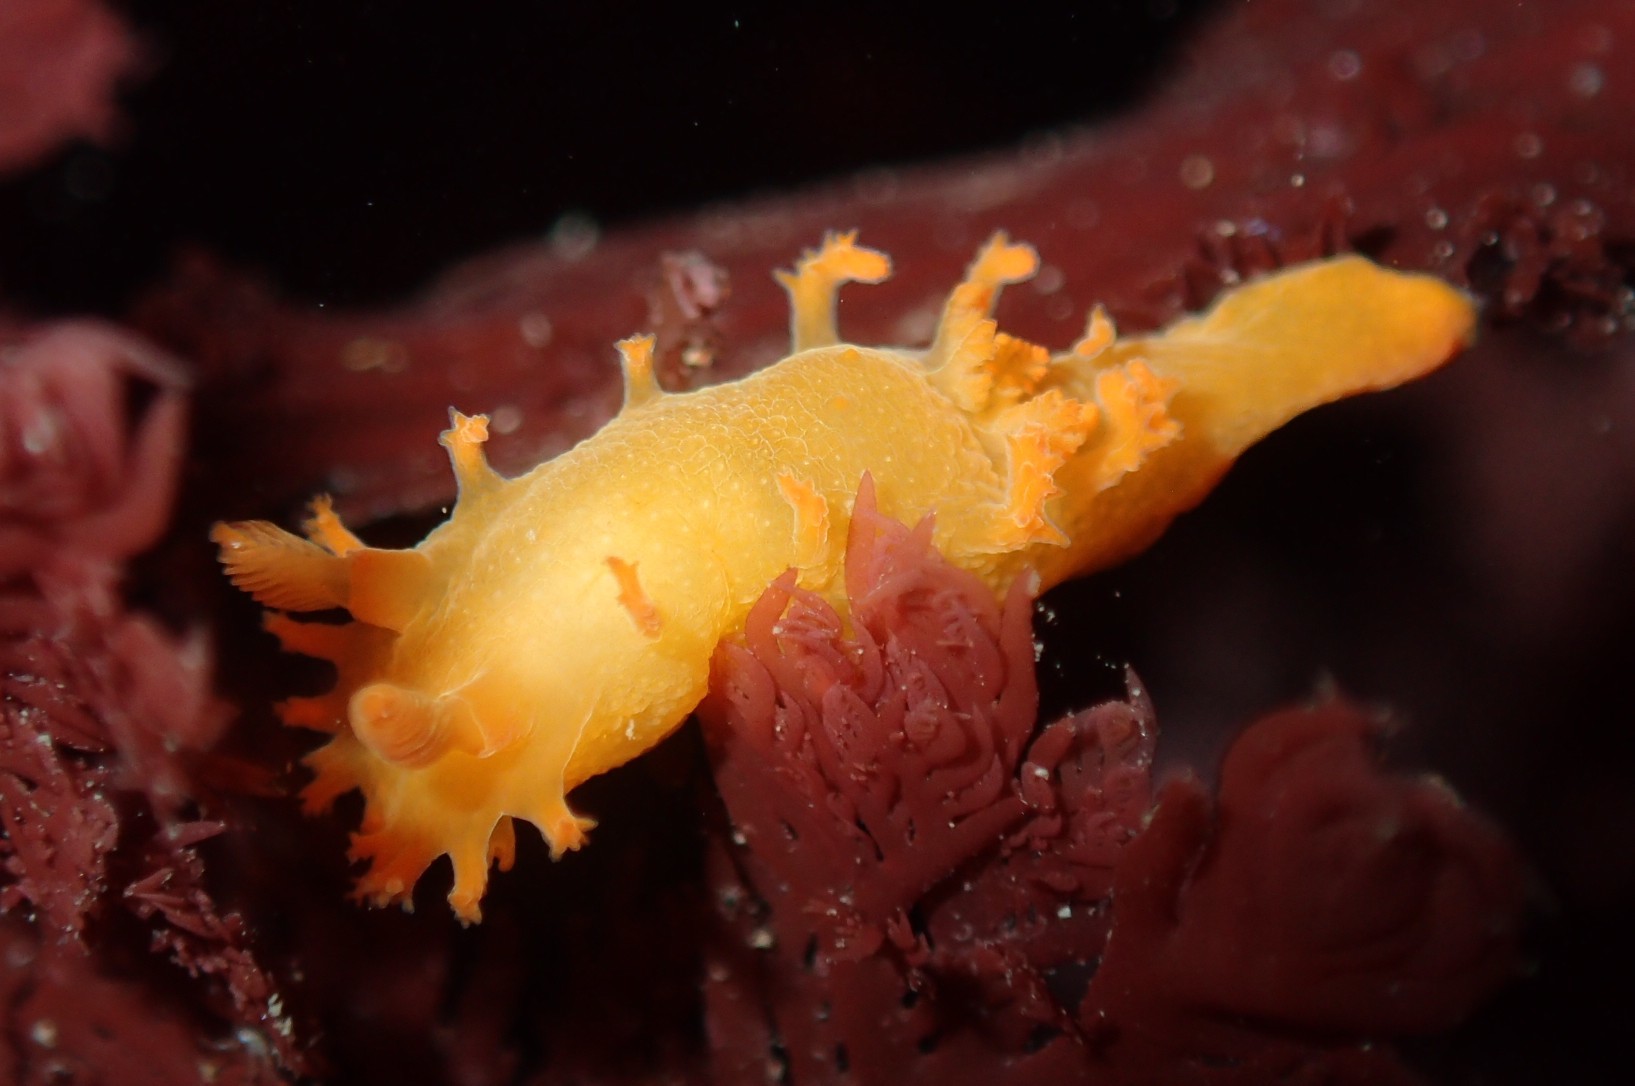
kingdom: Animalia
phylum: Mollusca
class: Gastropoda
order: Nudibranchia
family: Polyceridae
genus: Triopha
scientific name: Triopha maculata
